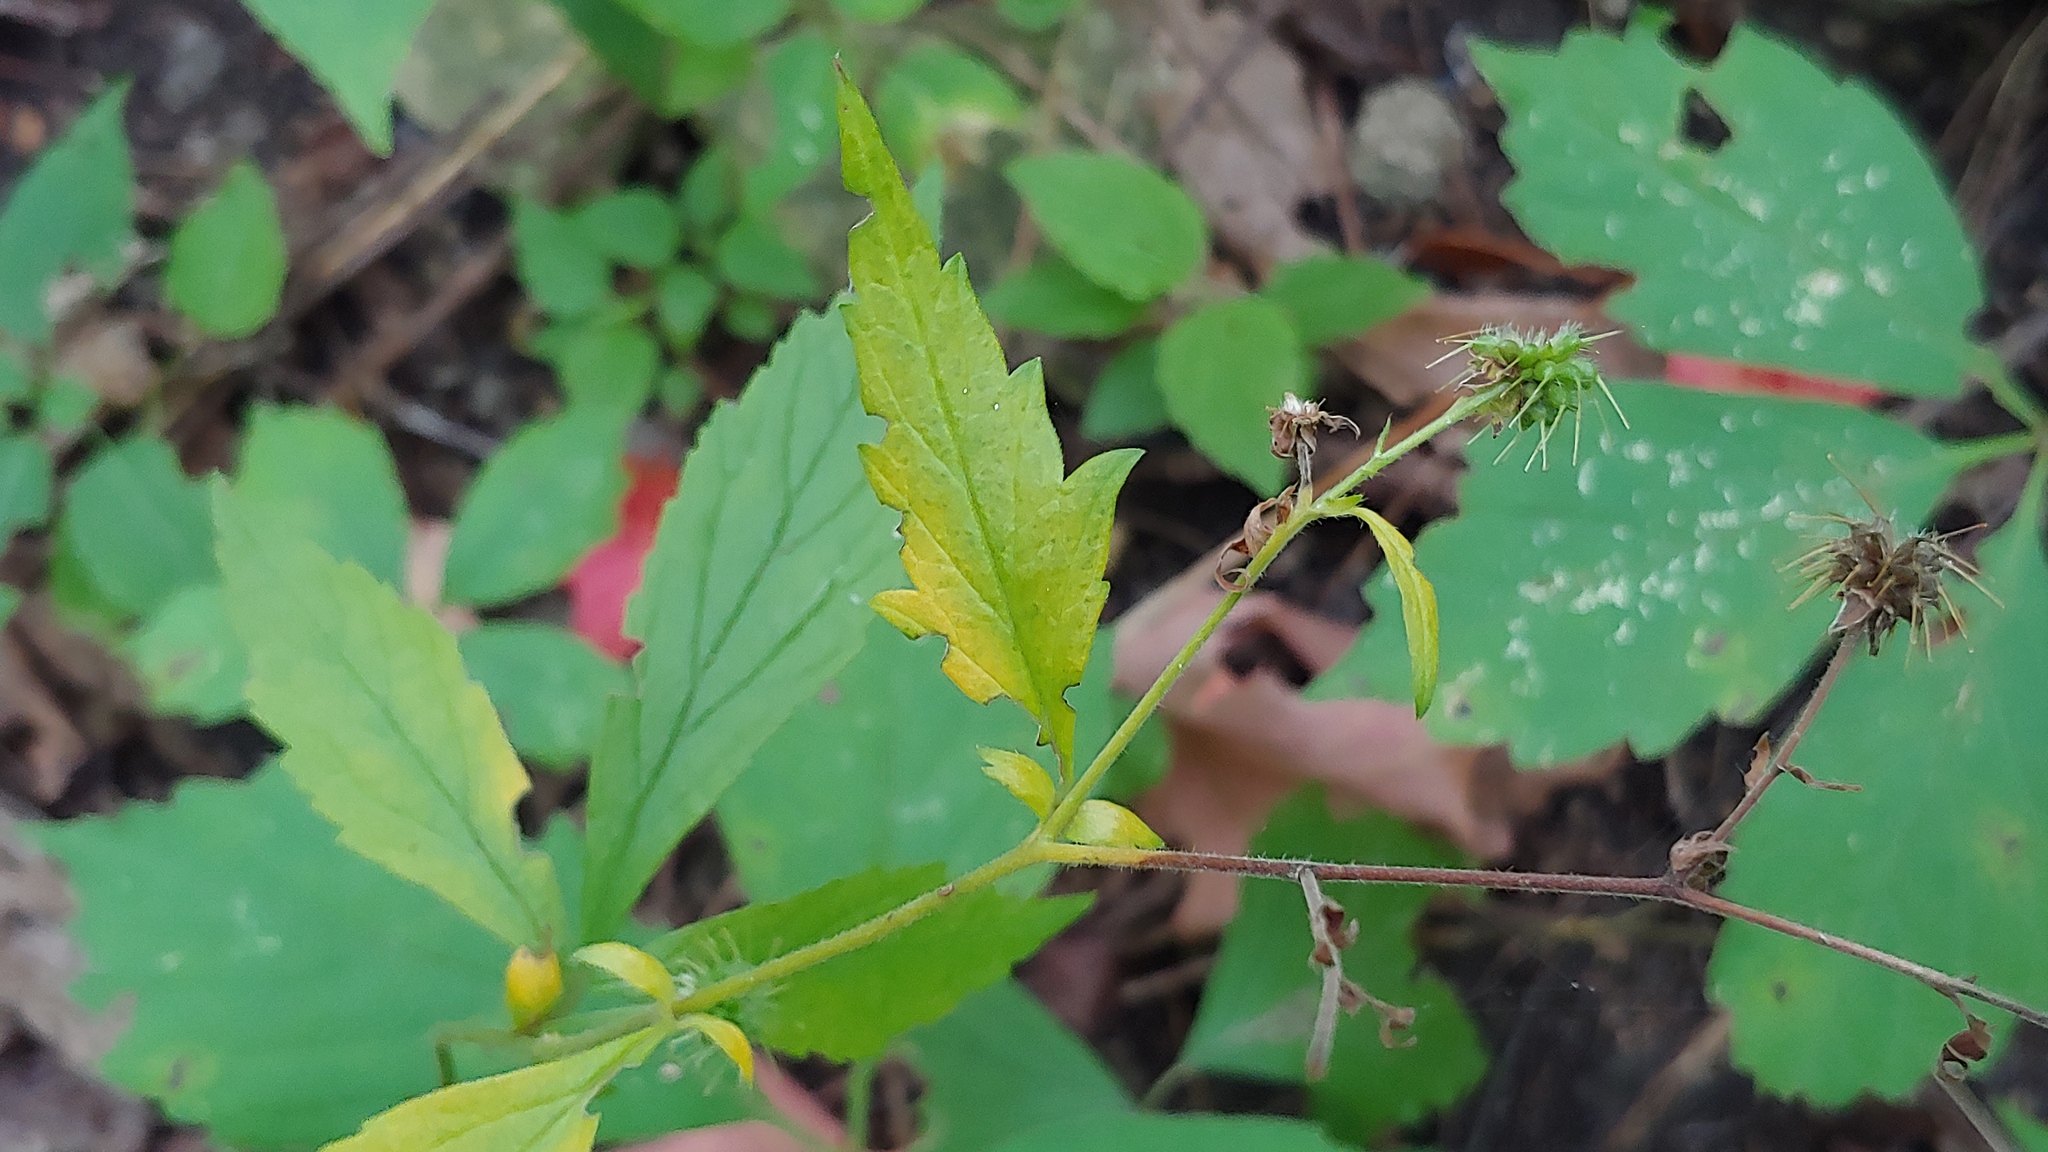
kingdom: Plantae
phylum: Tracheophyta
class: Magnoliopsida
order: Rosales
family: Rosaceae
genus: Geum
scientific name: Geum canadense
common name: White avens
